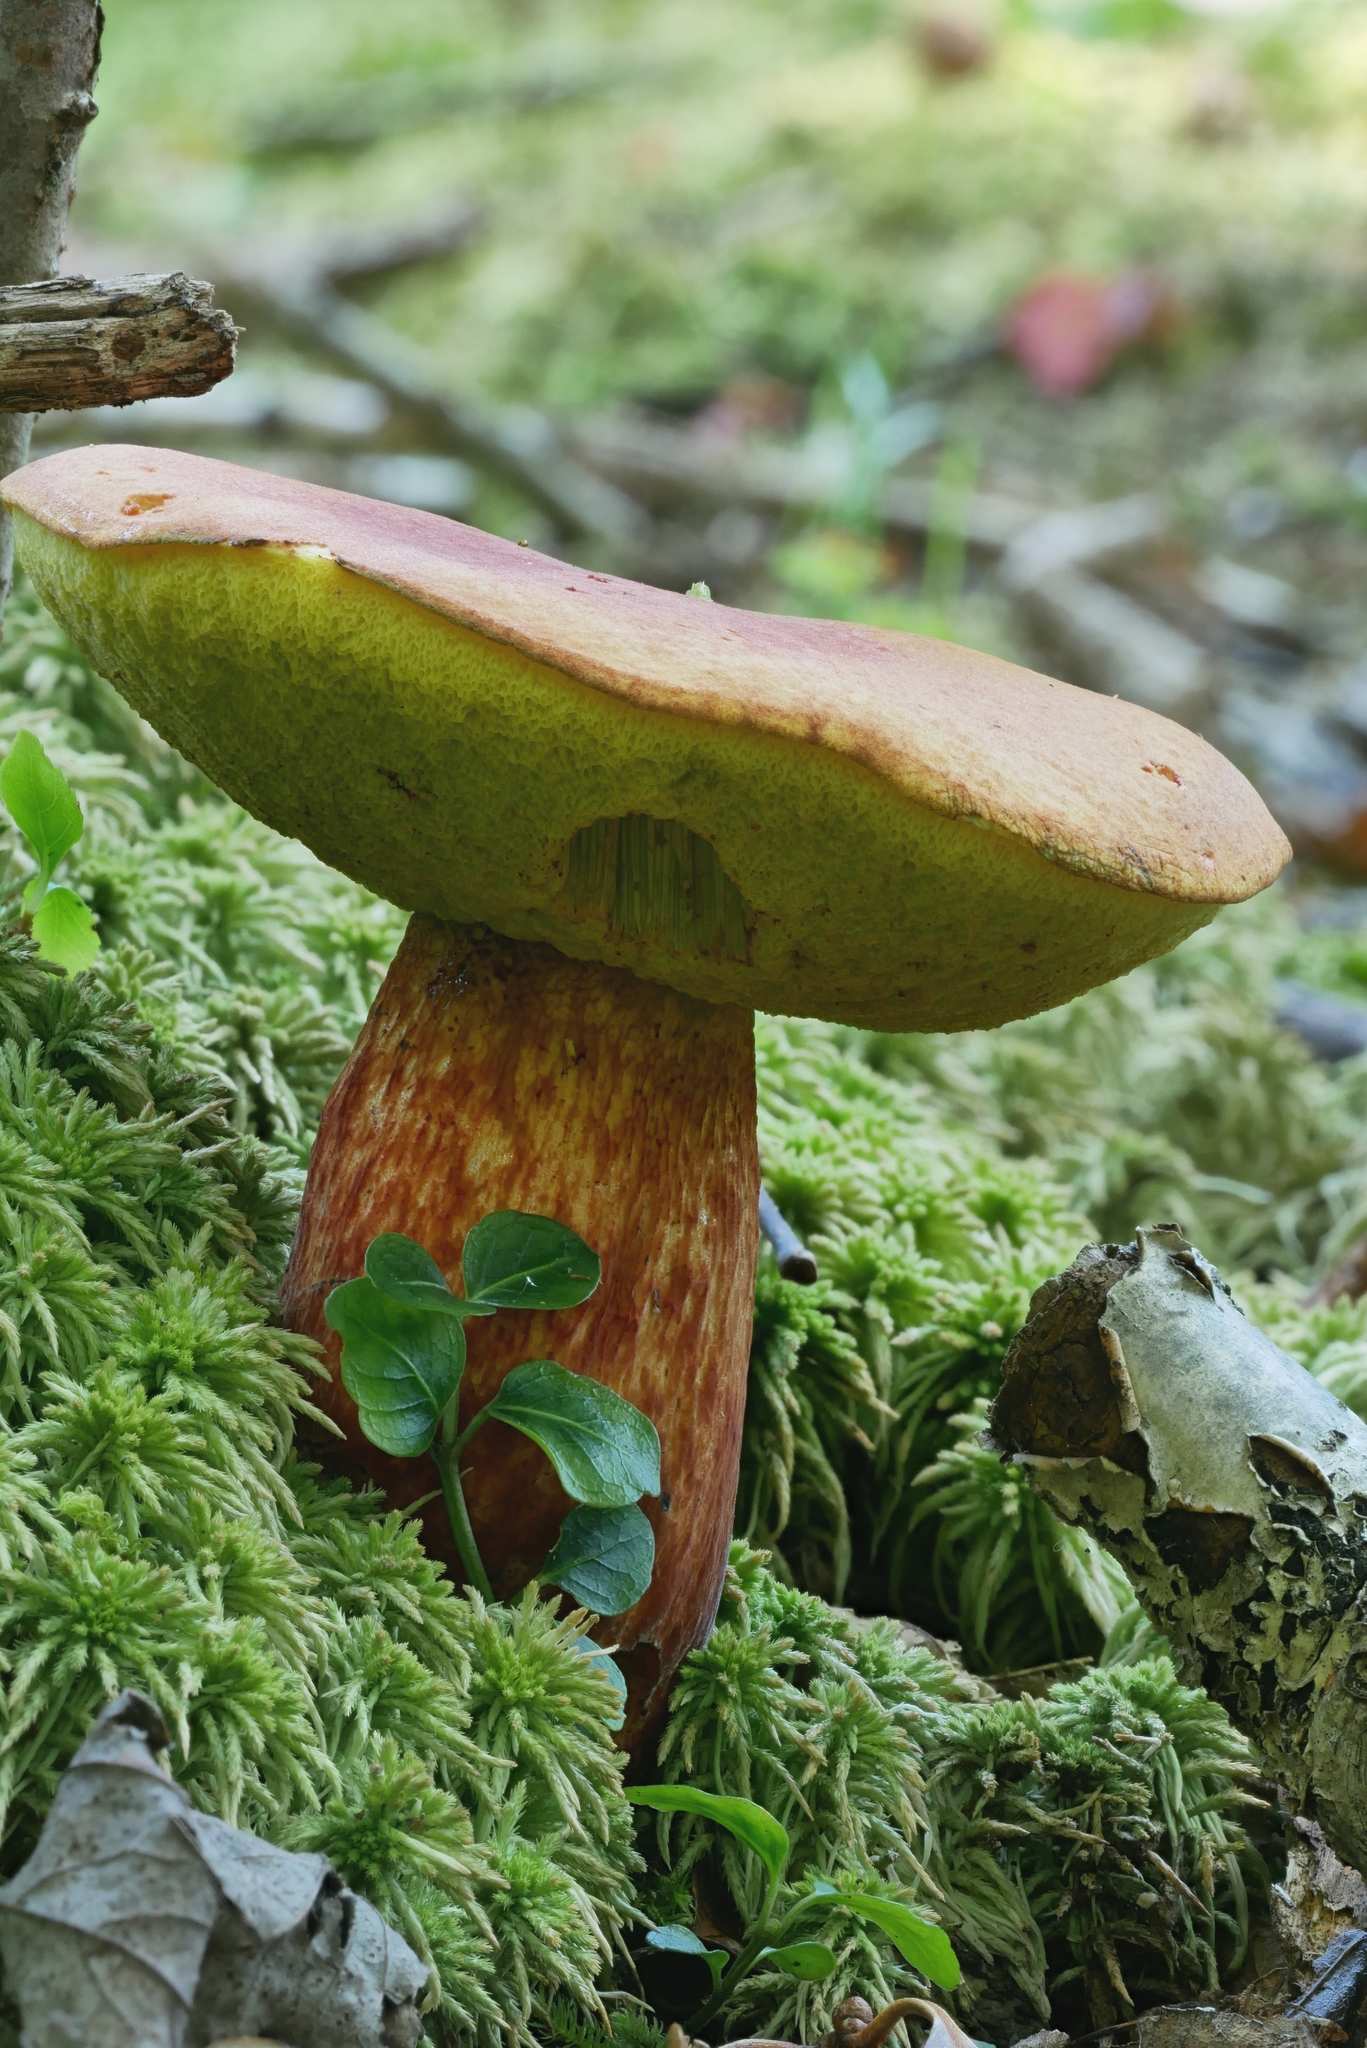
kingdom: Fungi
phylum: Basidiomycota
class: Agaricomycetes
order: Boletales
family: Boletaceae
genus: Pulchroboletus
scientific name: Pulchroboletus sclerotiorum
